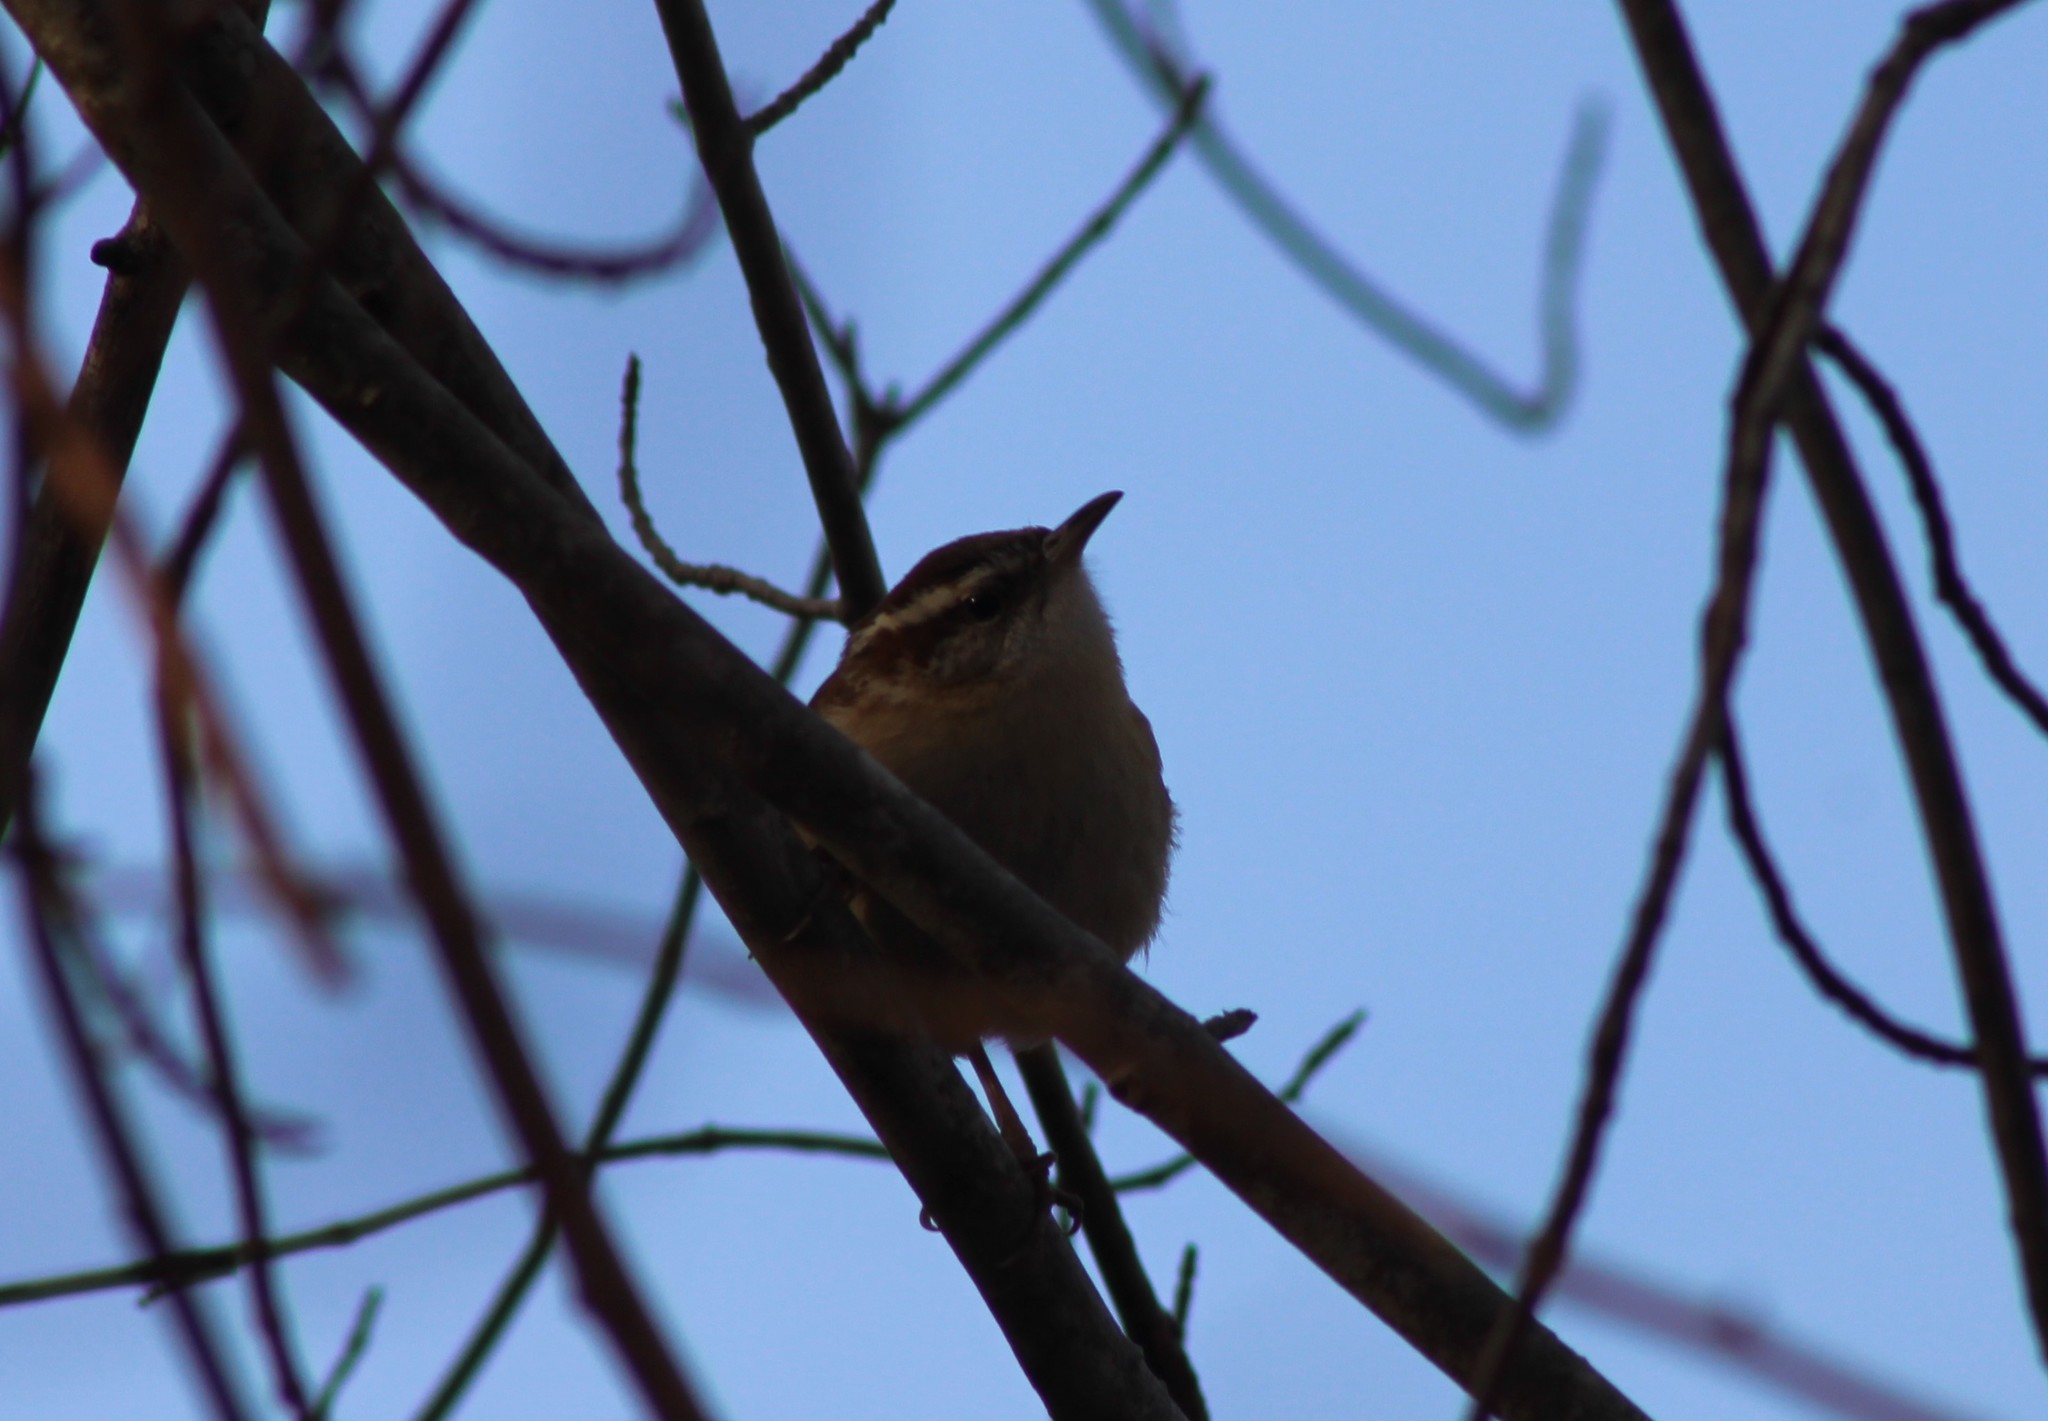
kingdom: Animalia
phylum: Chordata
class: Aves
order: Passeriformes
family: Troglodytidae
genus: Thryothorus
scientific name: Thryothorus ludovicianus
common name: Carolina wren
